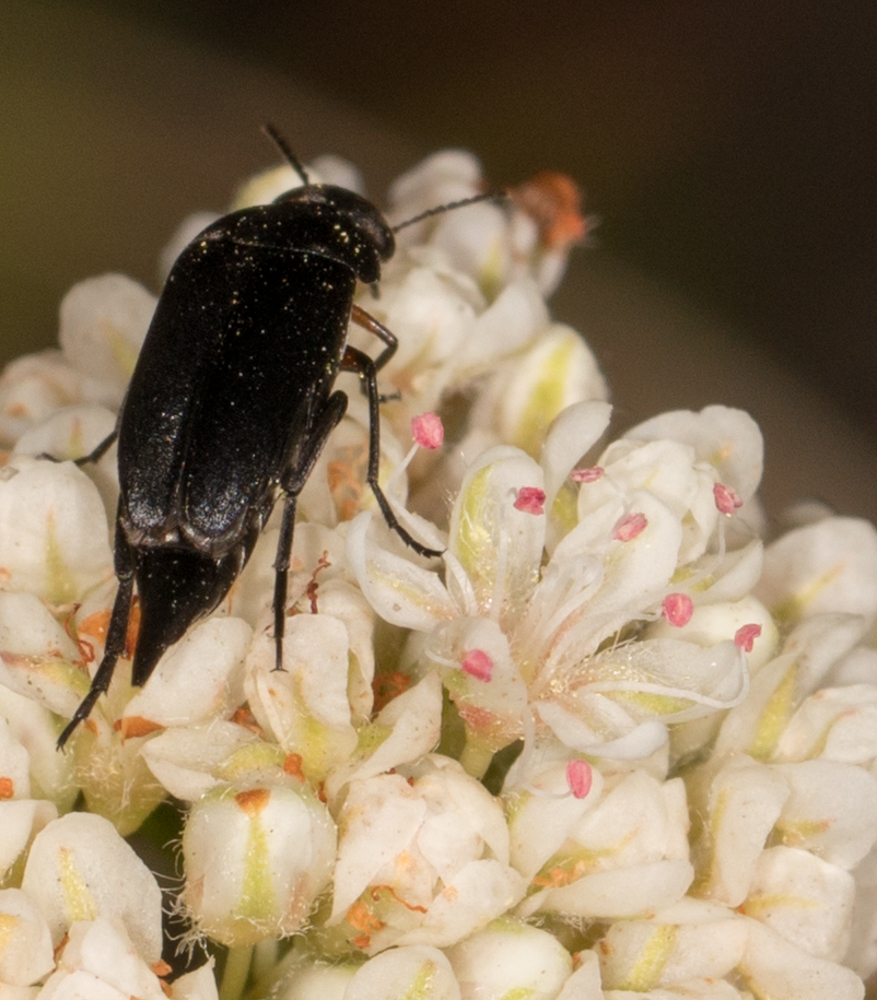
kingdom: Animalia
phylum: Arthropoda
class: Insecta
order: Coleoptera
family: Mordellidae
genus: Mordella
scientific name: Mordella hubbsi
